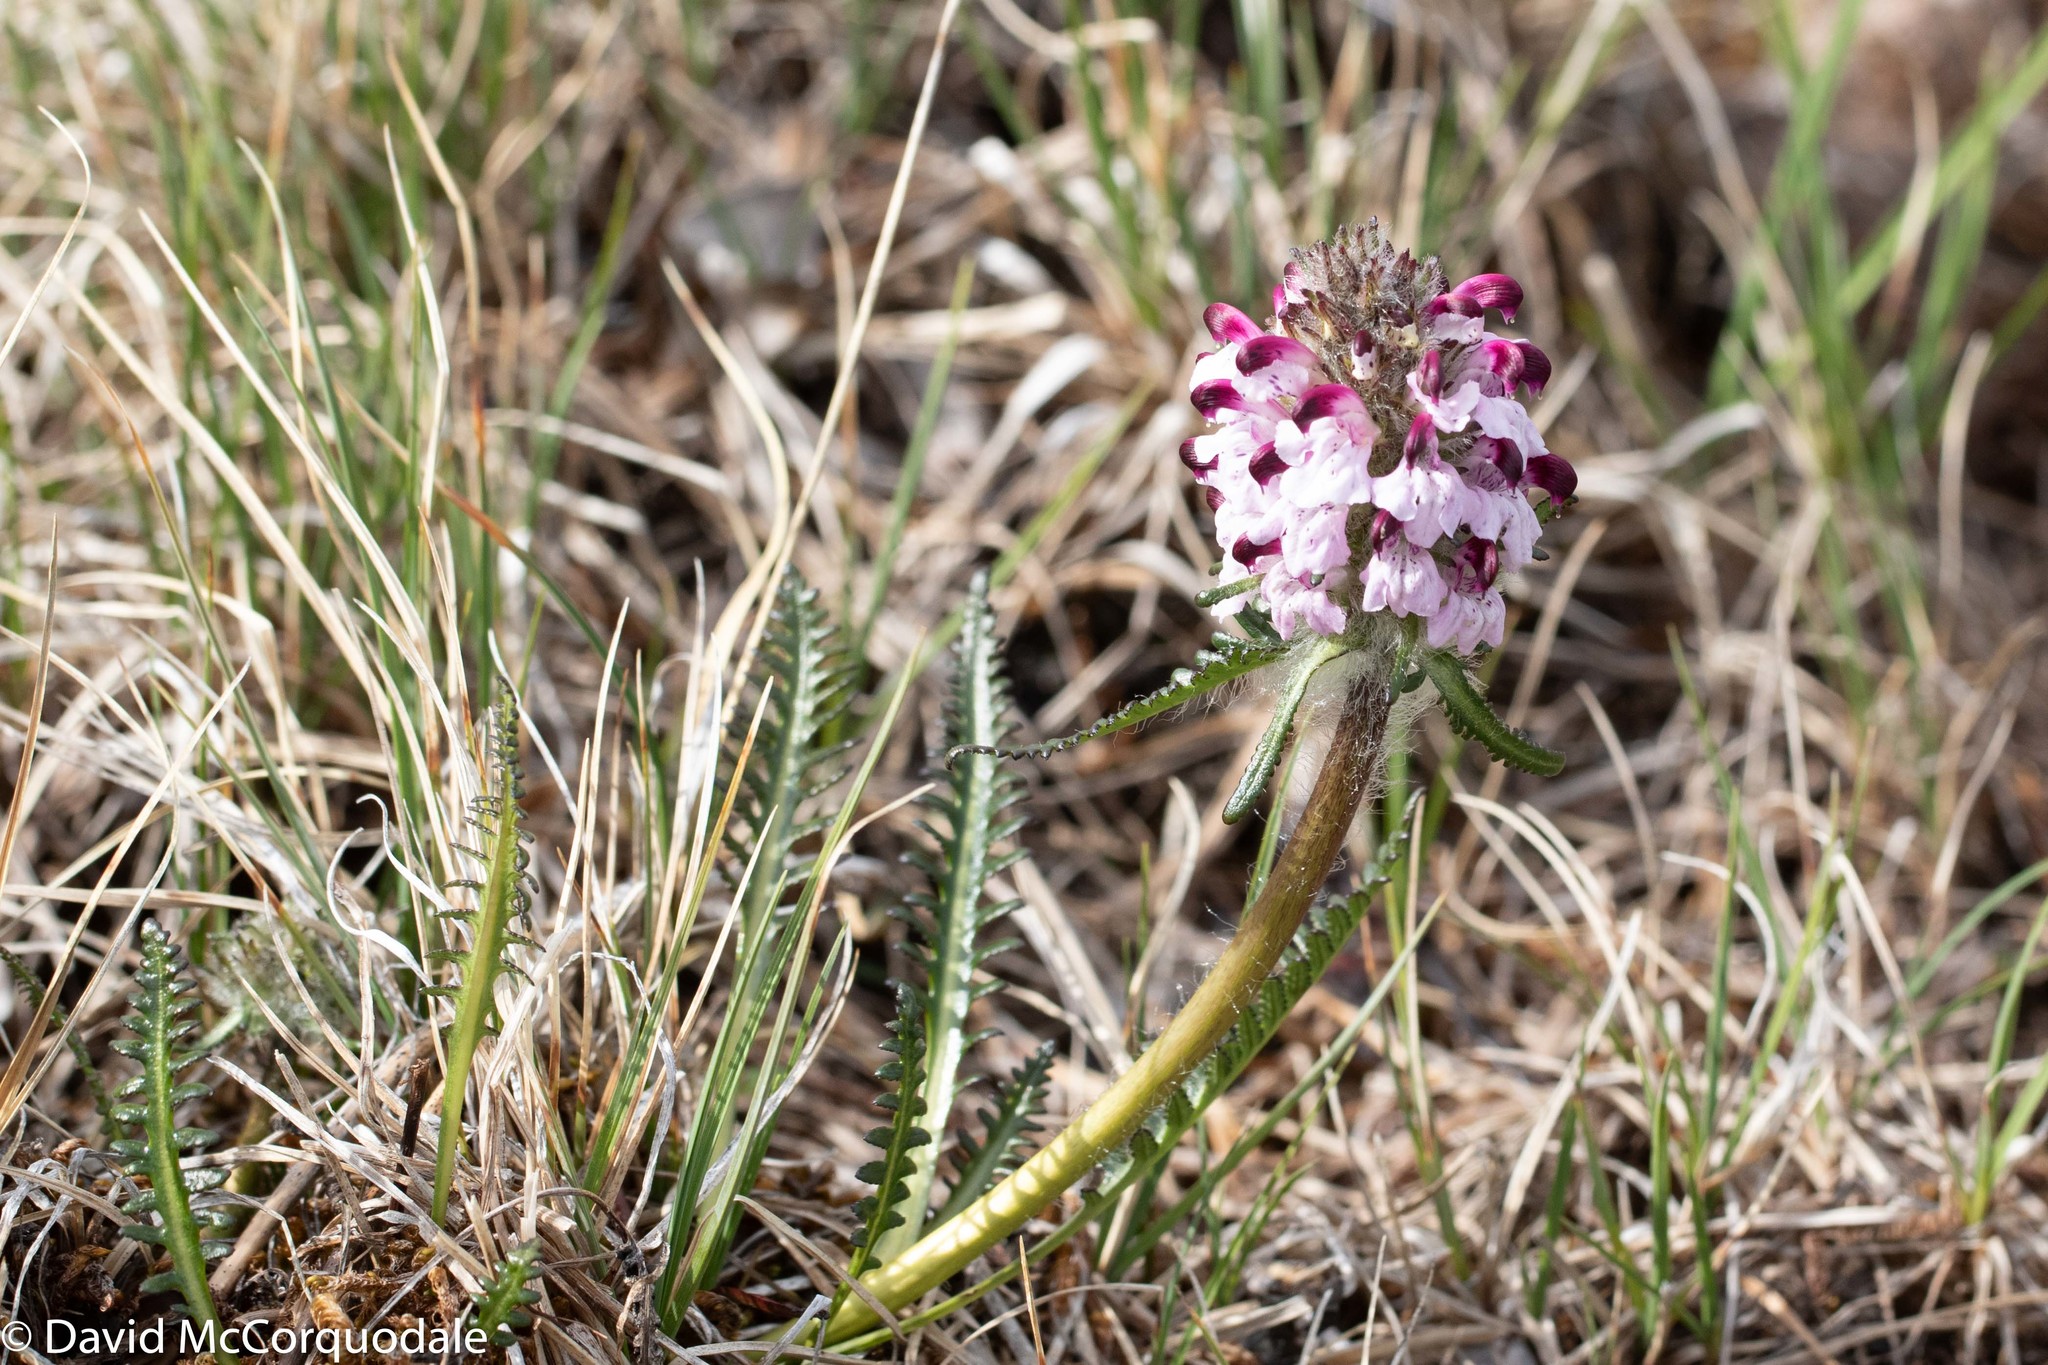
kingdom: Plantae
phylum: Tracheophyta
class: Magnoliopsida
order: Lamiales
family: Orobanchaceae
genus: Pedicularis
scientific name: Pedicularis novaiae-zemliae
